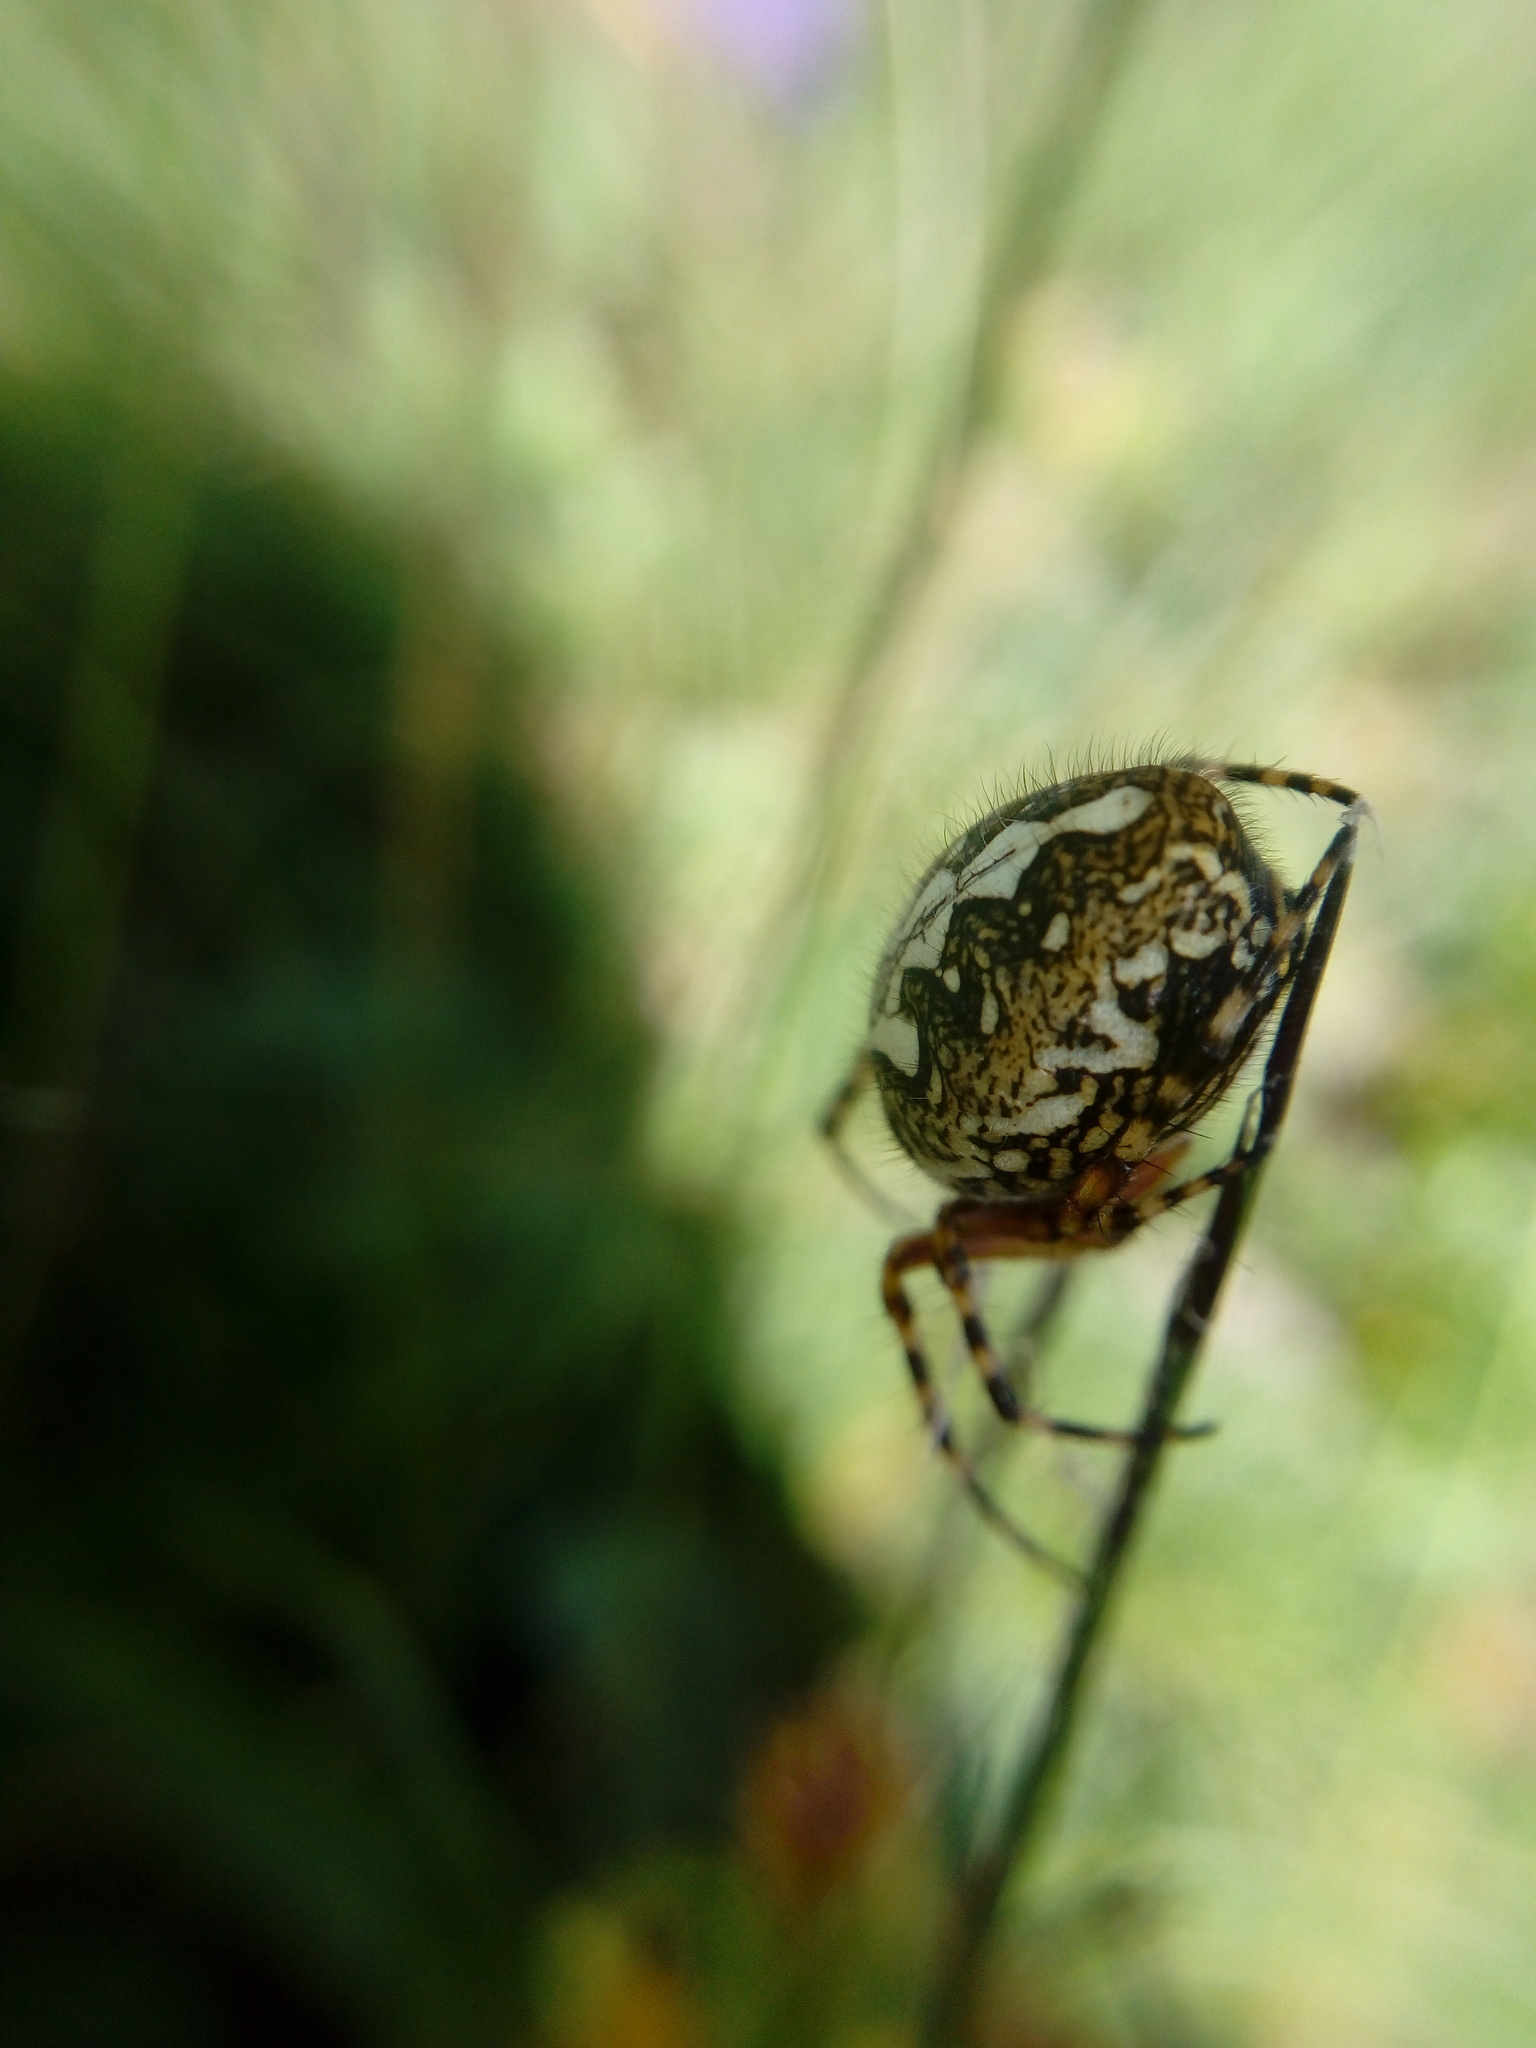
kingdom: Animalia
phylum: Arthropoda
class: Arachnida
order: Araneae
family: Araneidae
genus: Aculepeira
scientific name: Aculepeira ceropegia
